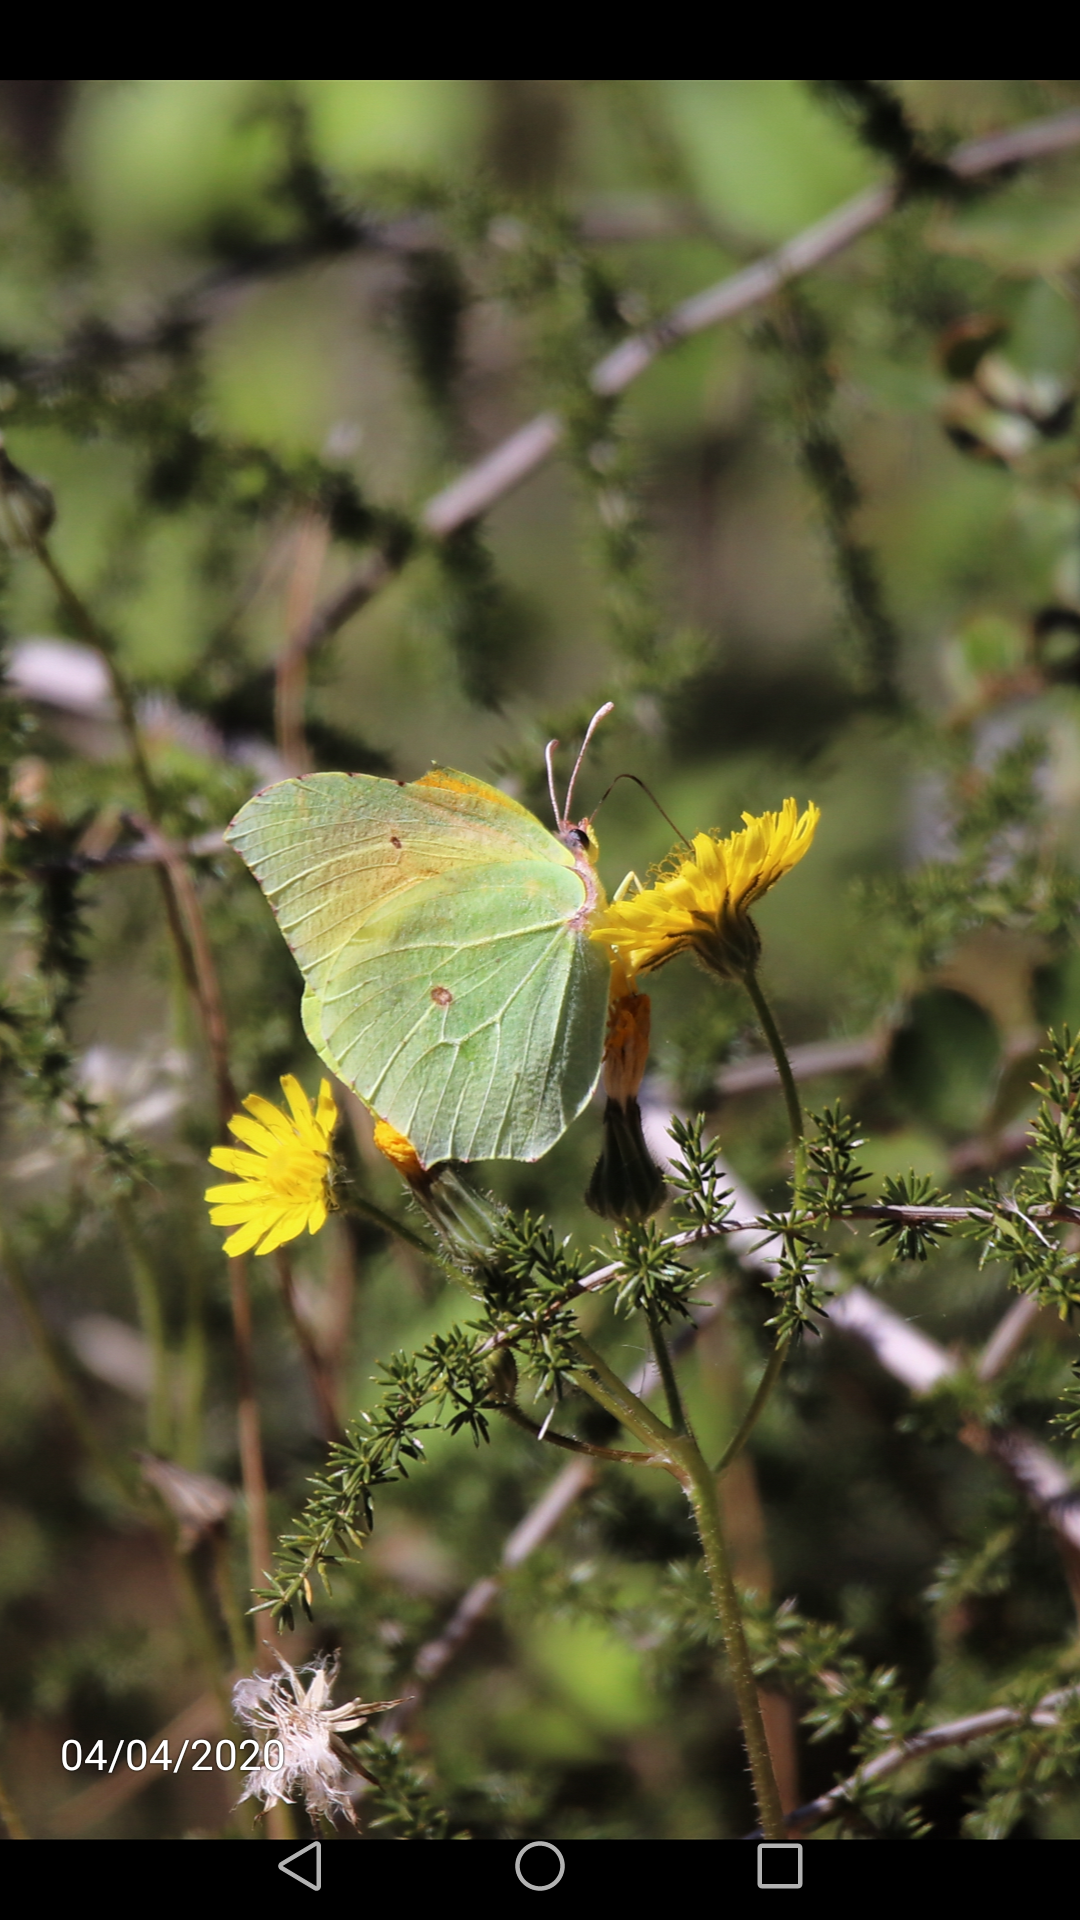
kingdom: Animalia
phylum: Arthropoda
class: Insecta
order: Lepidoptera
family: Pieridae
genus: Gonepteryx
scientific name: Gonepteryx cleopatra
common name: Cleopatra
